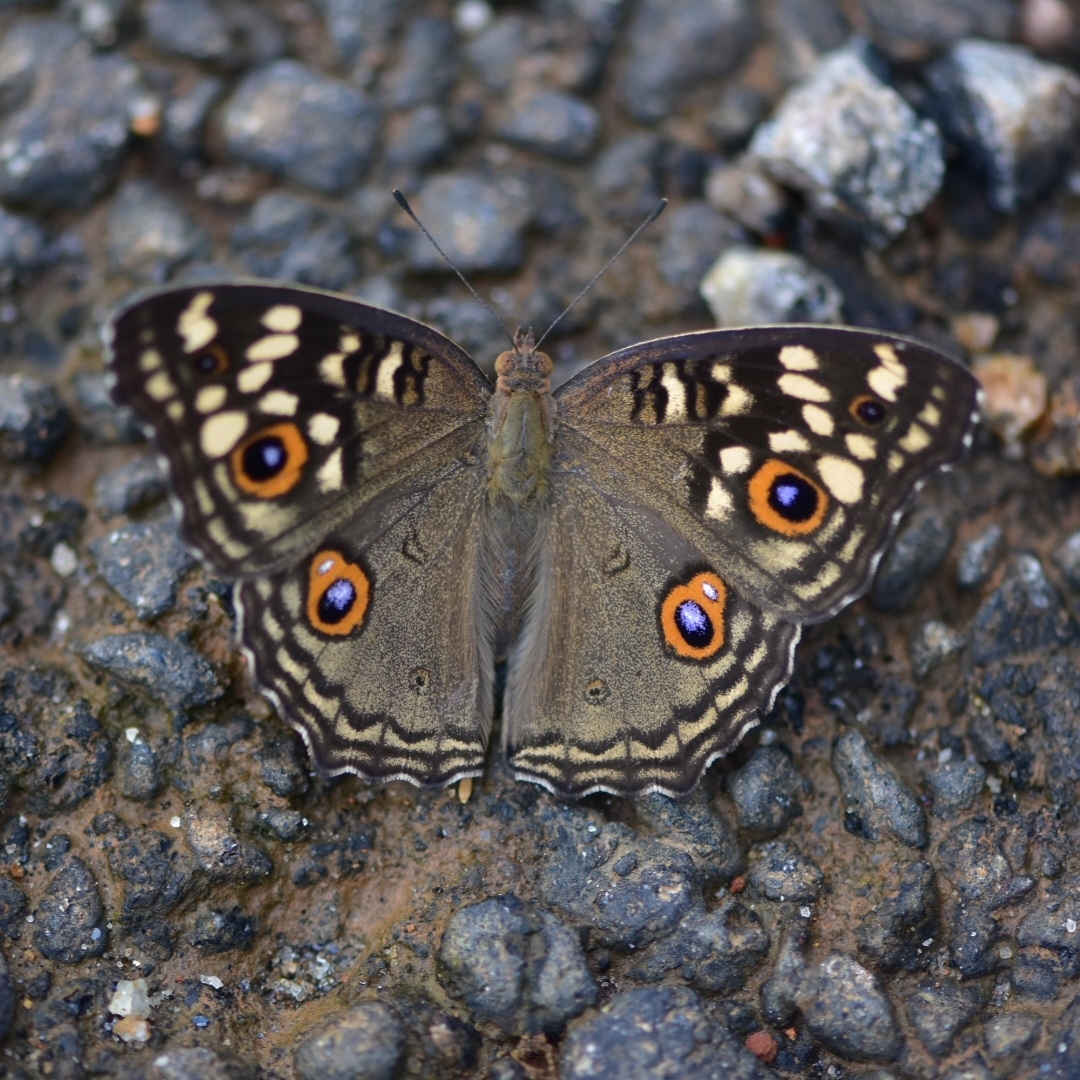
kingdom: Animalia
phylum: Arthropoda
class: Insecta
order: Lepidoptera
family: Nymphalidae
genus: Junonia
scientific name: Junonia lemonias
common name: Lemon pansy
